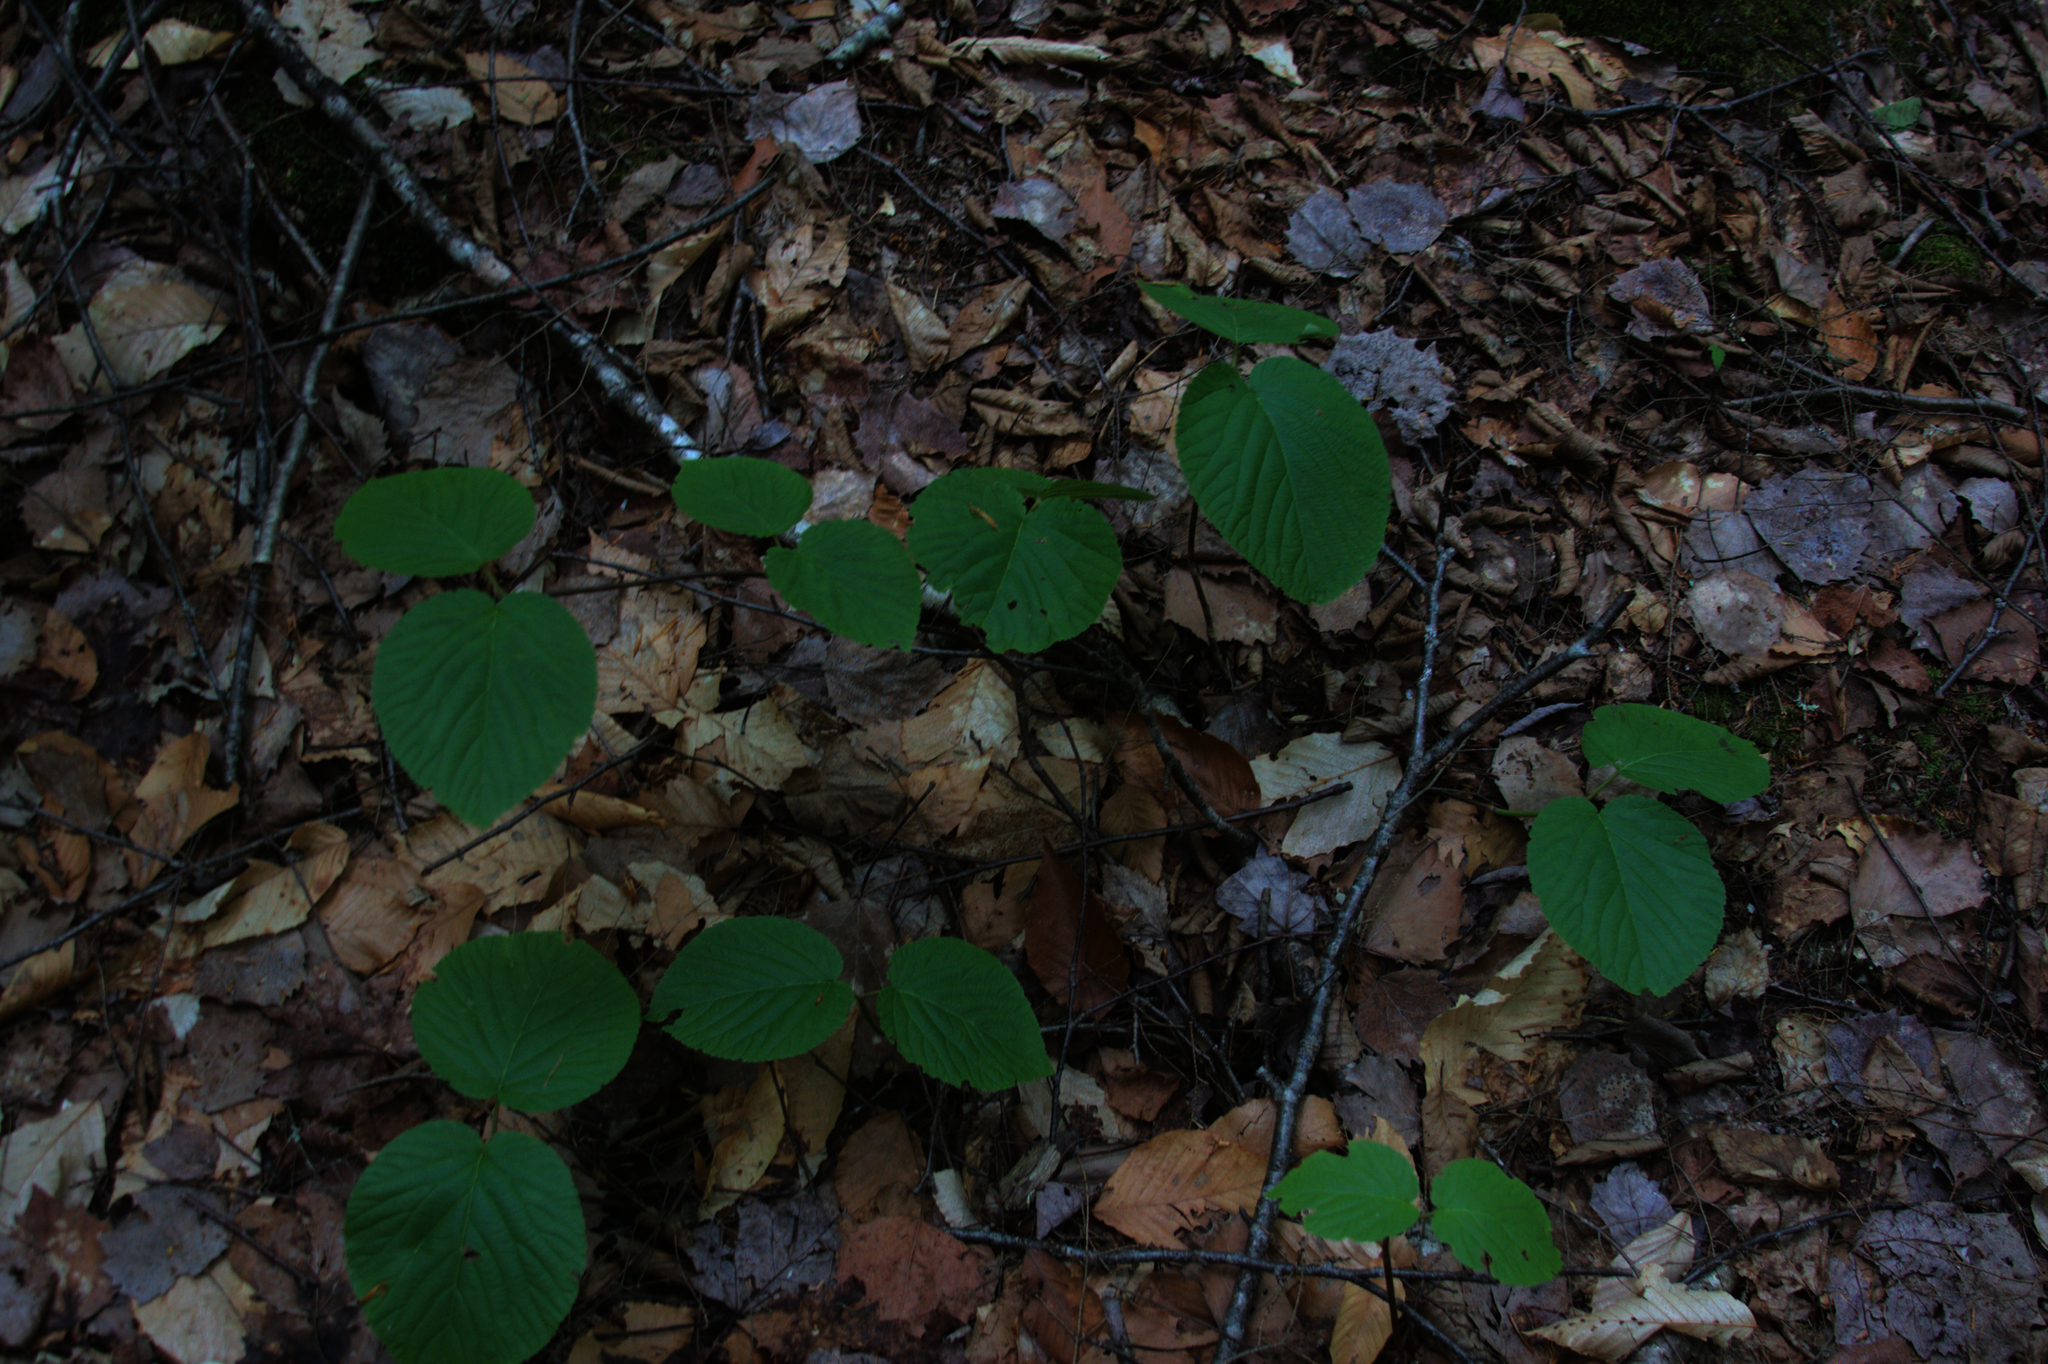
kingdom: Plantae
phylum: Tracheophyta
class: Magnoliopsida
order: Dipsacales
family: Viburnaceae
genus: Viburnum
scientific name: Viburnum lantanoides
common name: Hobblebush
